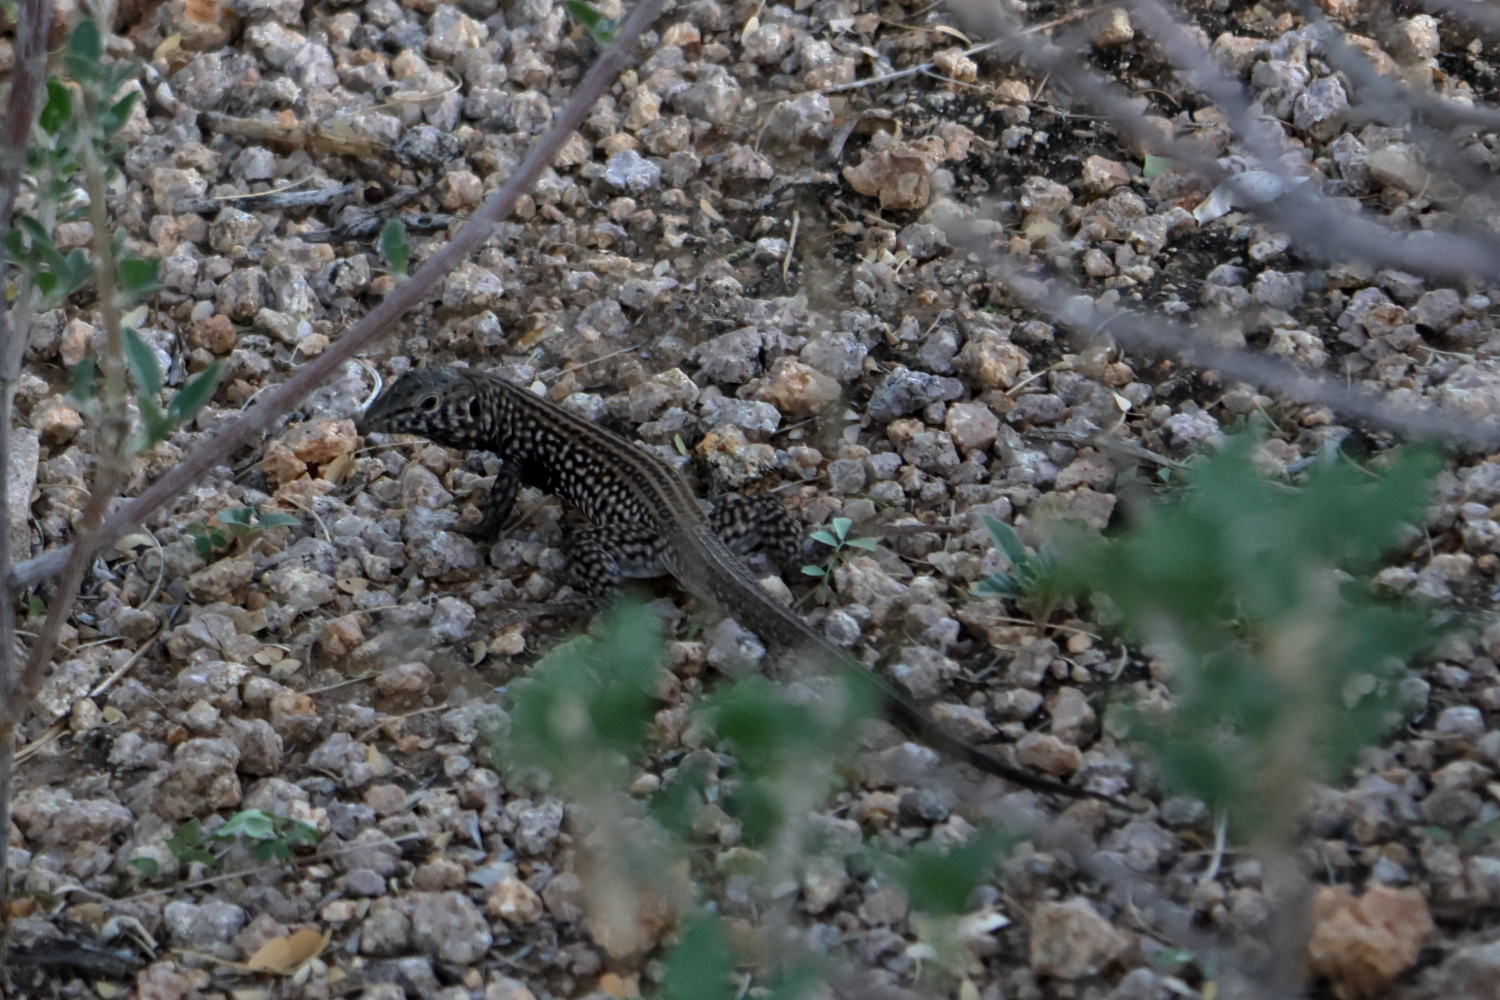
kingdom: Animalia
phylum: Chordata
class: Squamata
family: Teiidae
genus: Aspidoscelis
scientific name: Aspidoscelis tigris
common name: Tiger whiptail
